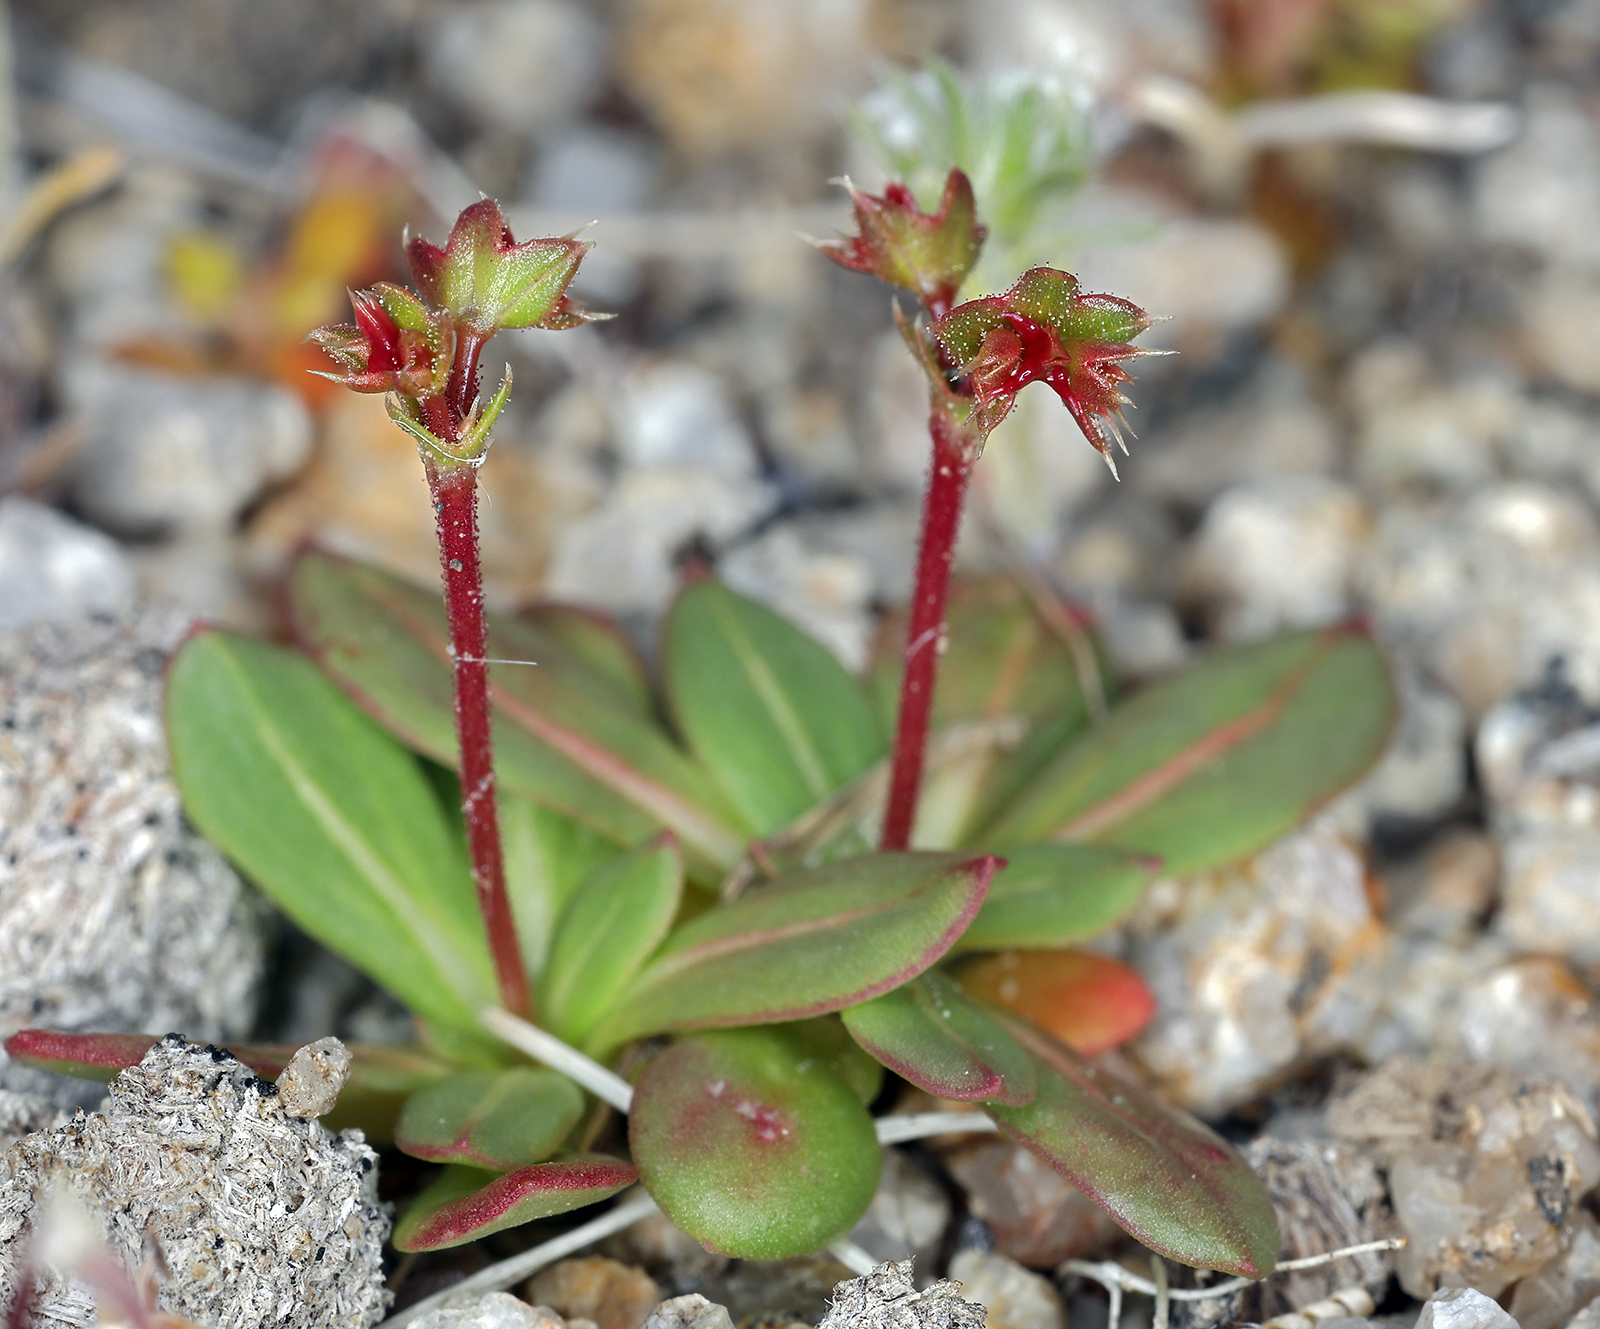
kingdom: Plantae
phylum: Tracheophyta
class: Magnoliopsida
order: Caryophyllales
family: Polygonaceae
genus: Centrostegia
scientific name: Centrostegia thurberi
